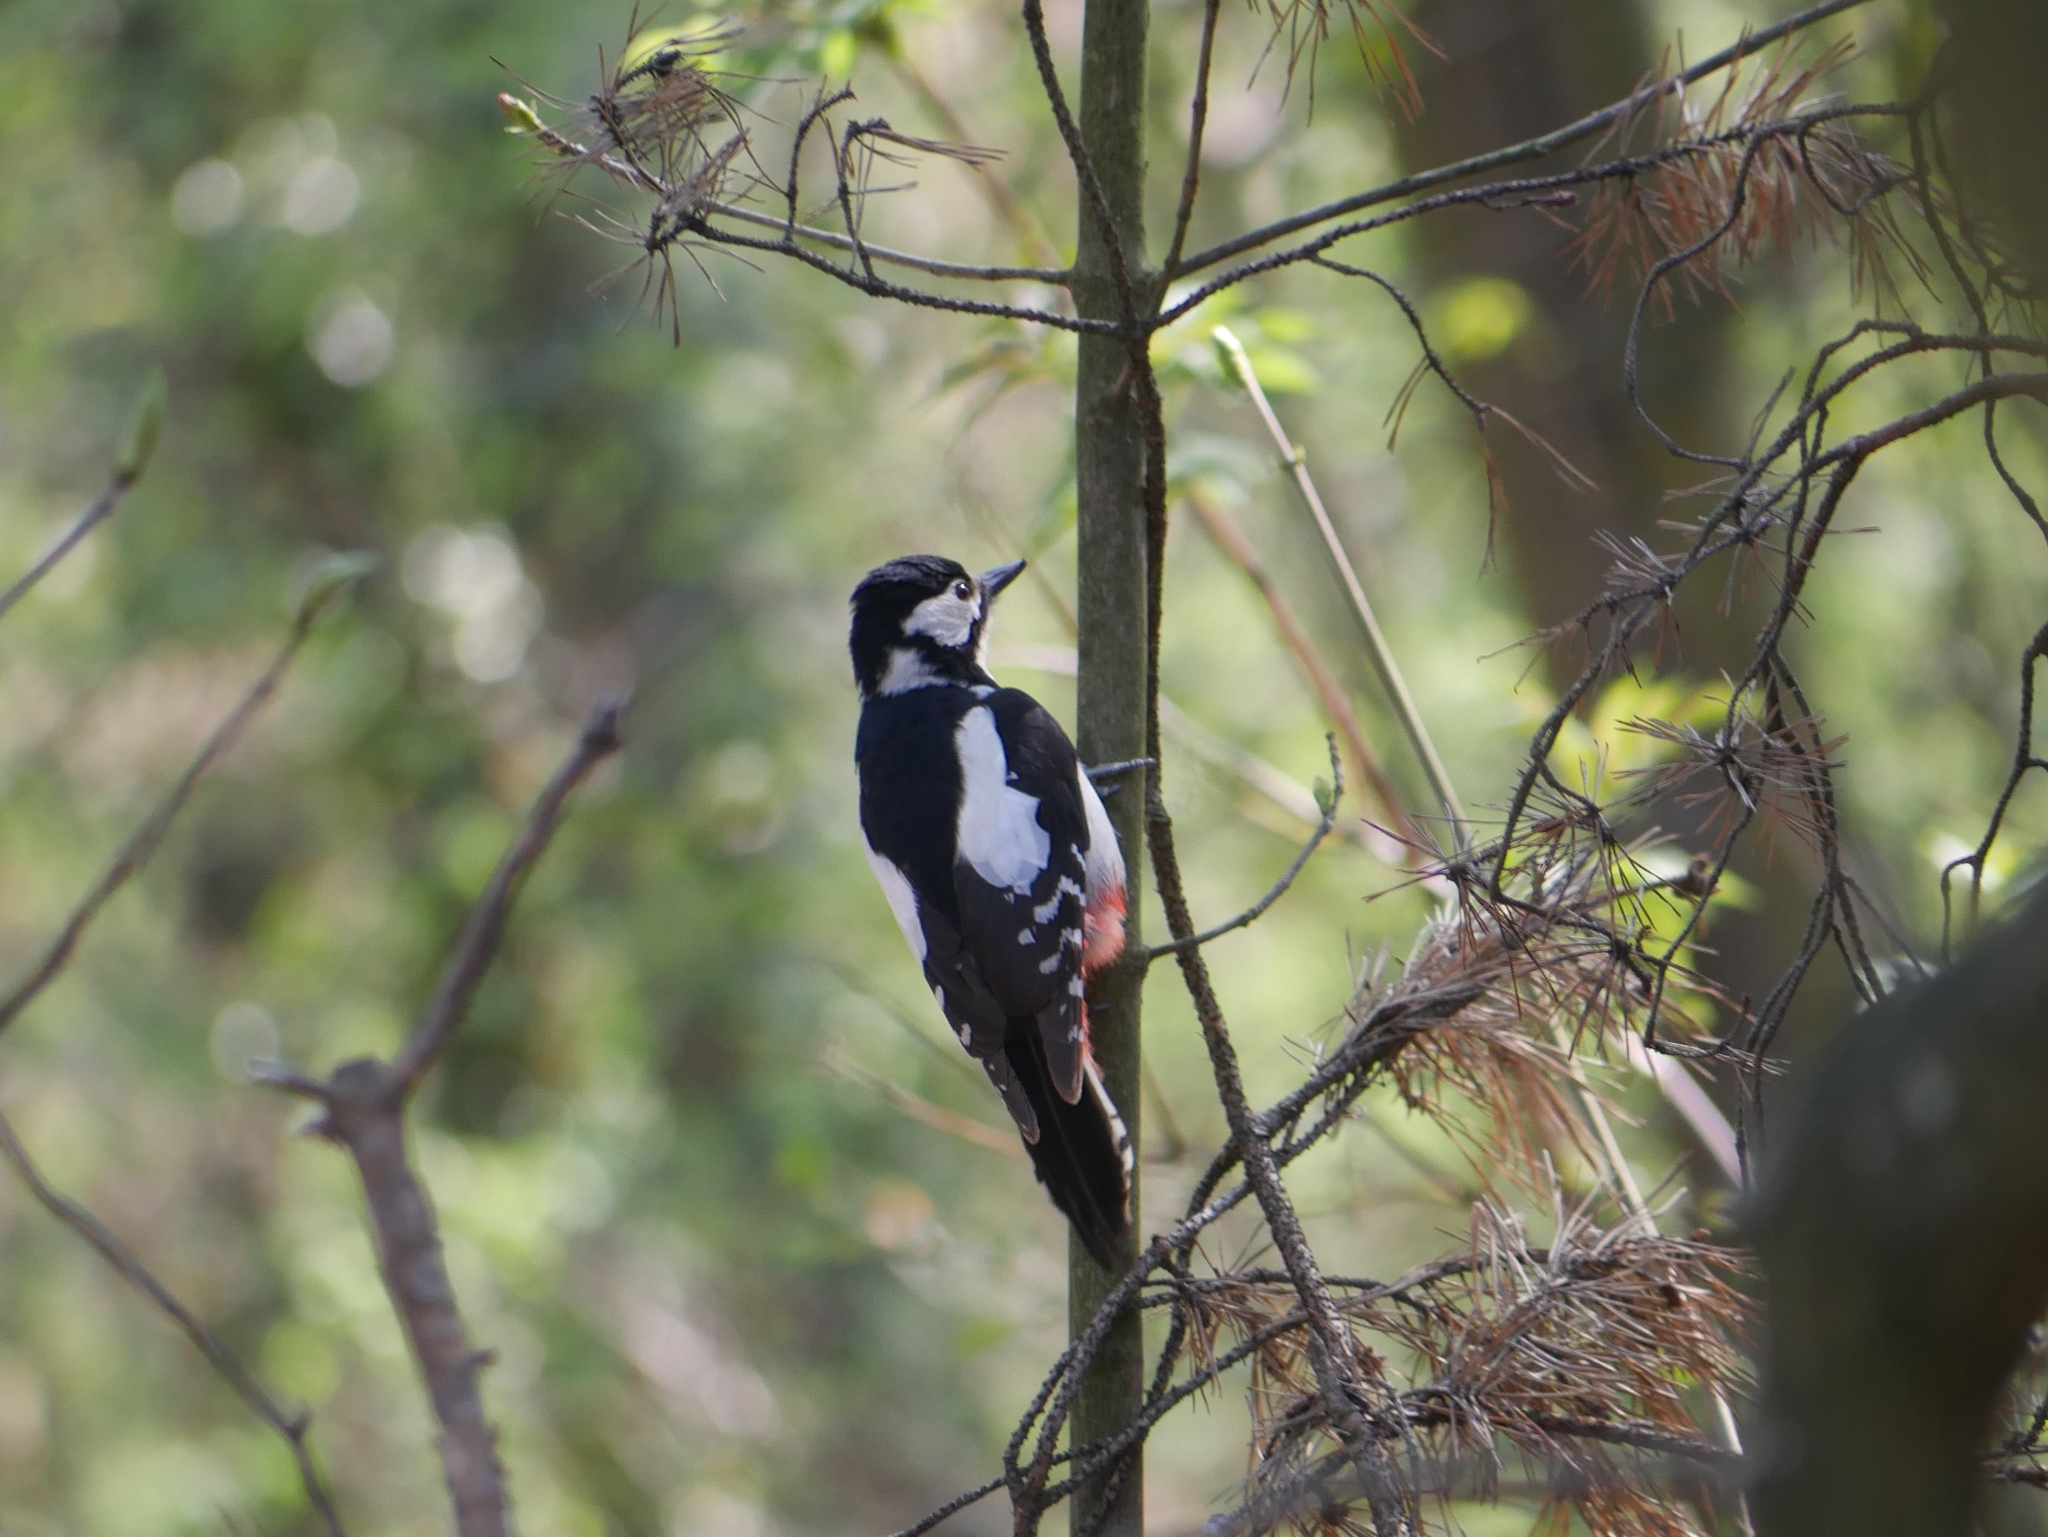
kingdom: Animalia
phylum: Chordata
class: Aves
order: Piciformes
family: Picidae
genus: Dendrocopos
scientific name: Dendrocopos major
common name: Great spotted woodpecker
